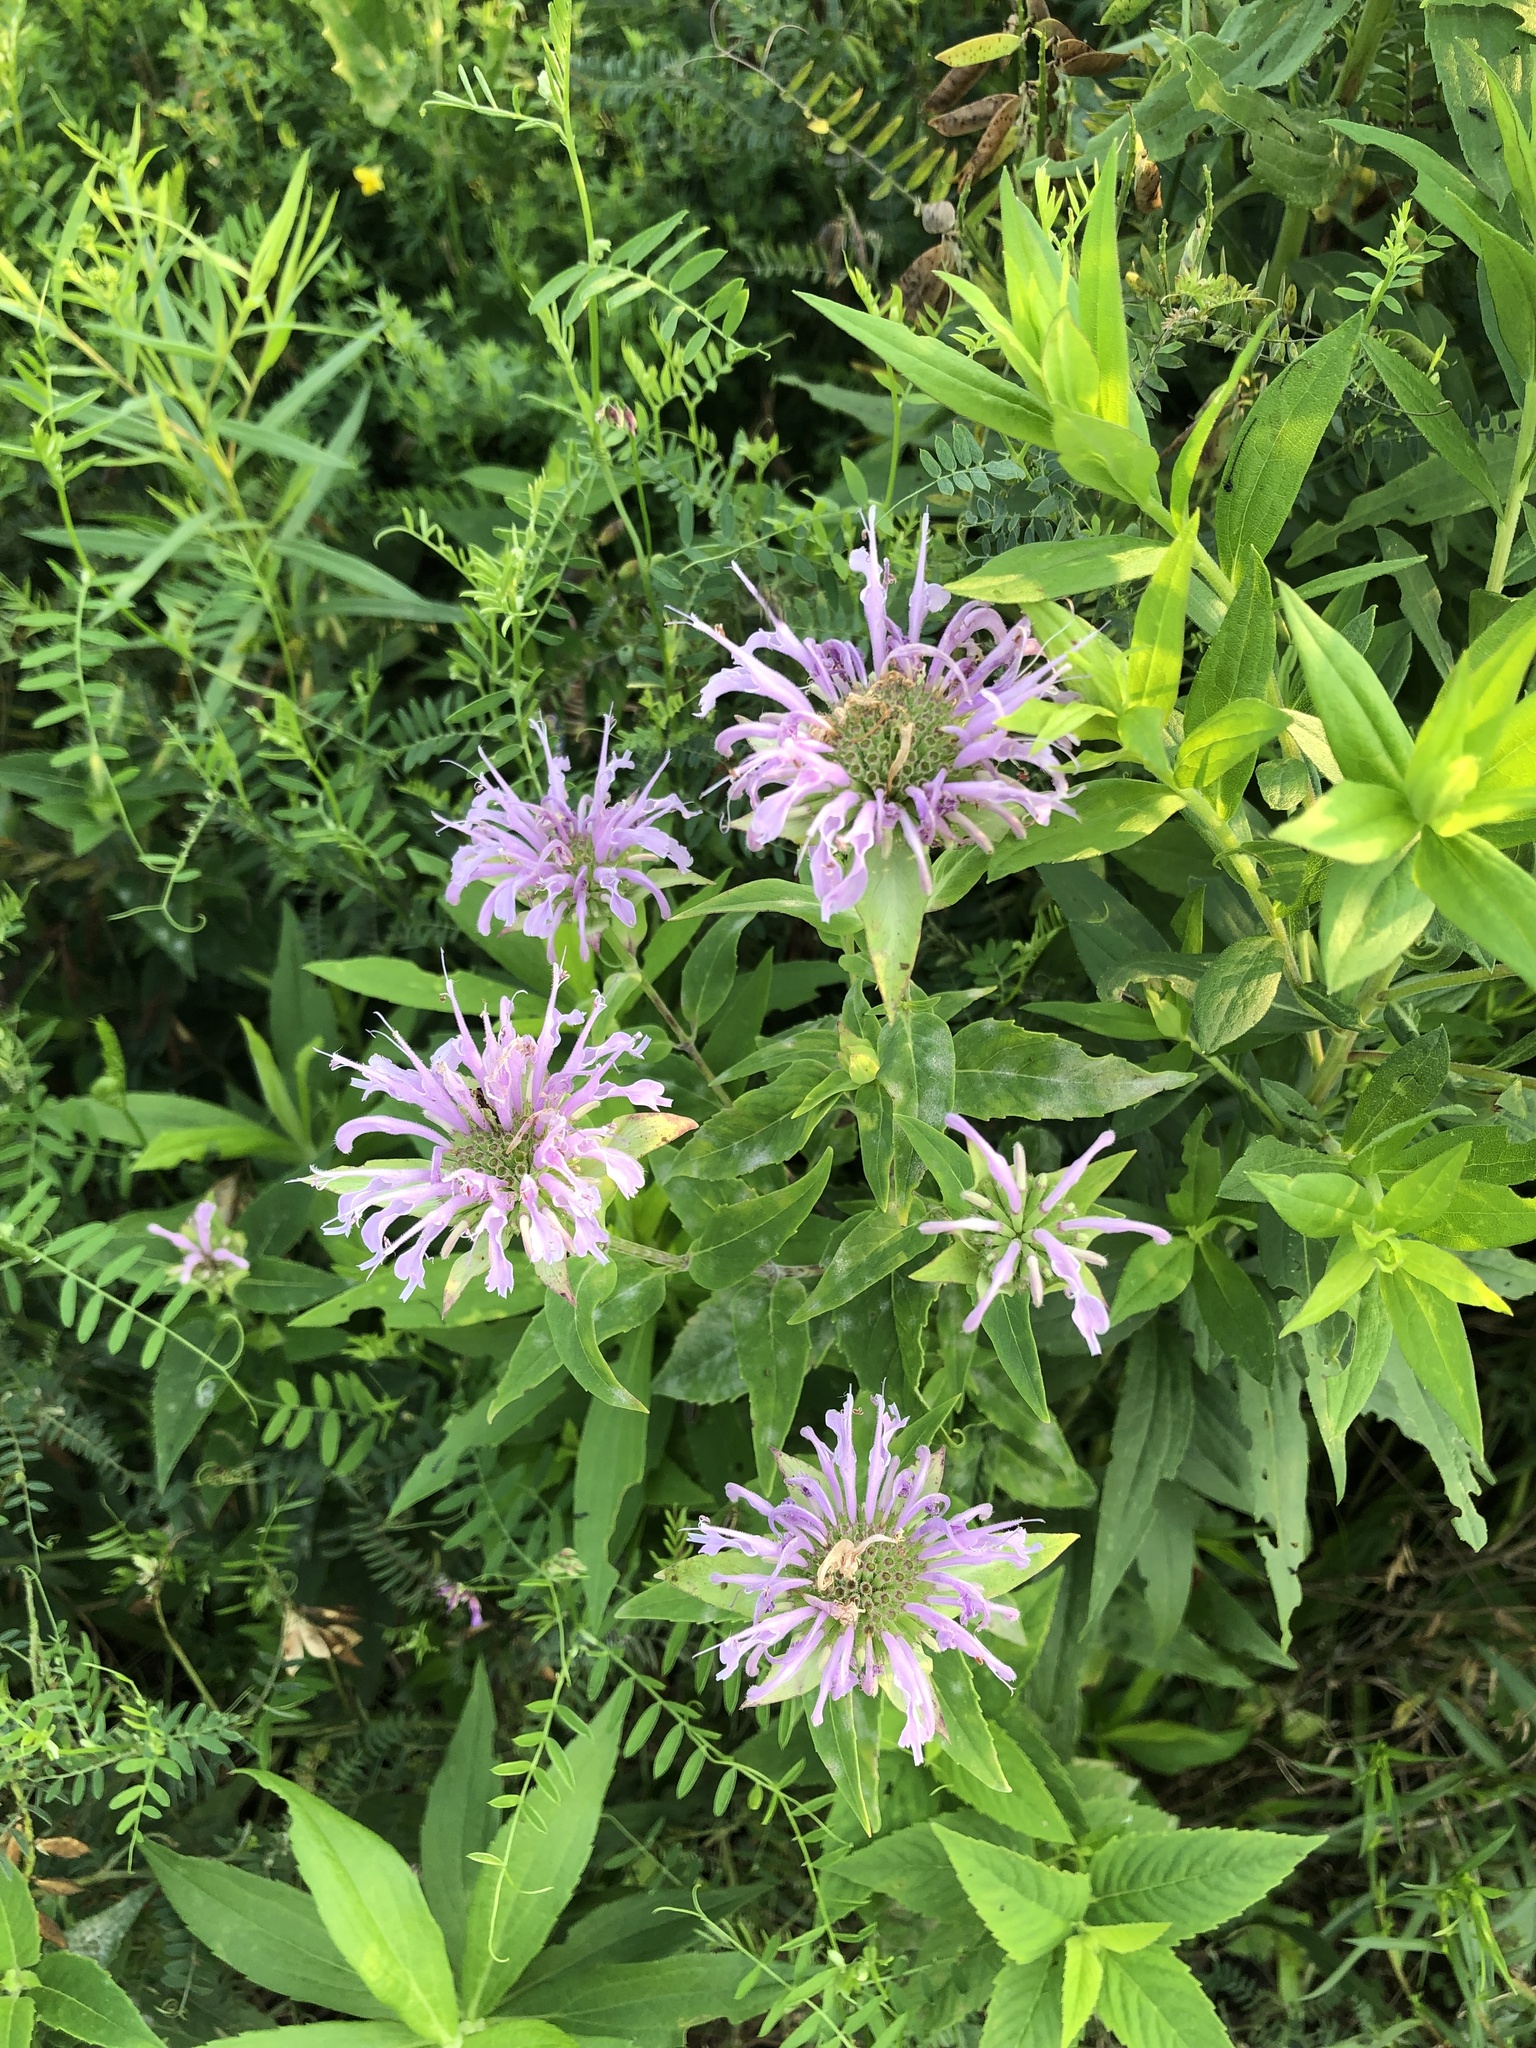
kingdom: Plantae
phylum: Tracheophyta
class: Magnoliopsida
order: Lamiales
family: Lamiaceae
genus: Monarda
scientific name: Monarda fistulosa
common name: Purple beebalm
